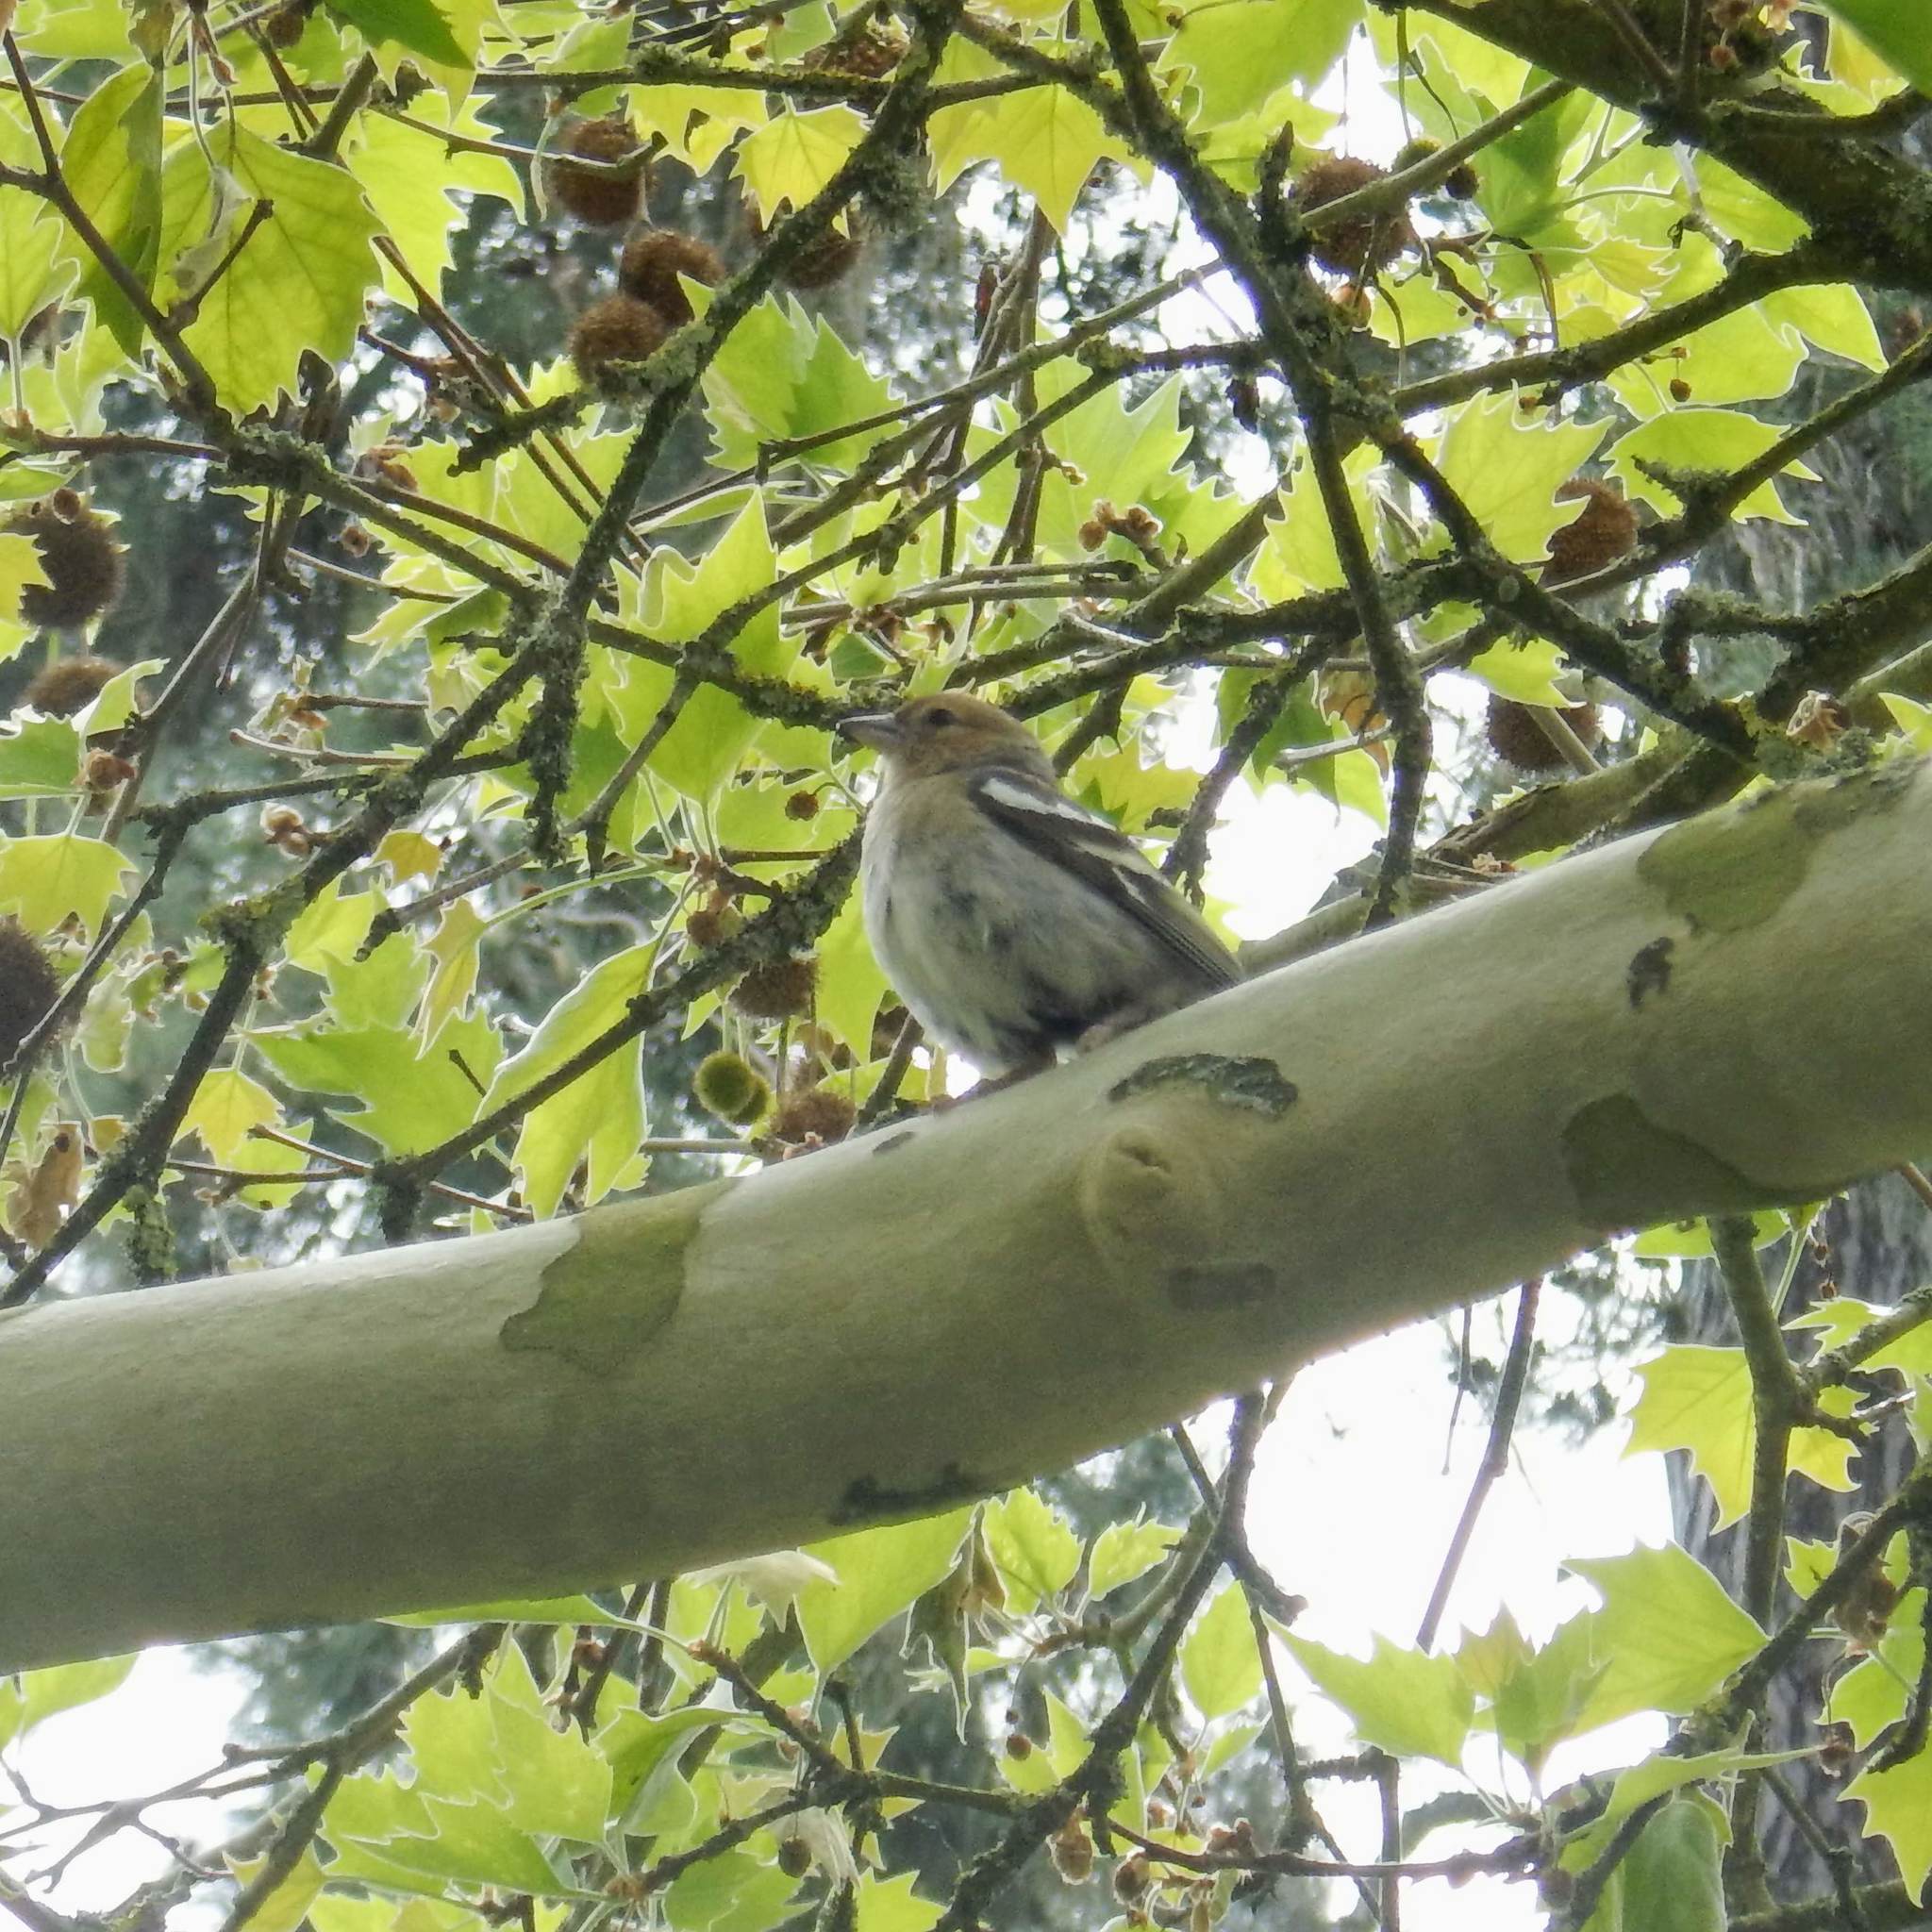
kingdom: Animalia
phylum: Chordata
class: Aves
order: Passeriformes
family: Fringillidae
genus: Fringilla
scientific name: Fringilla coelebs
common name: Common chaffinch
